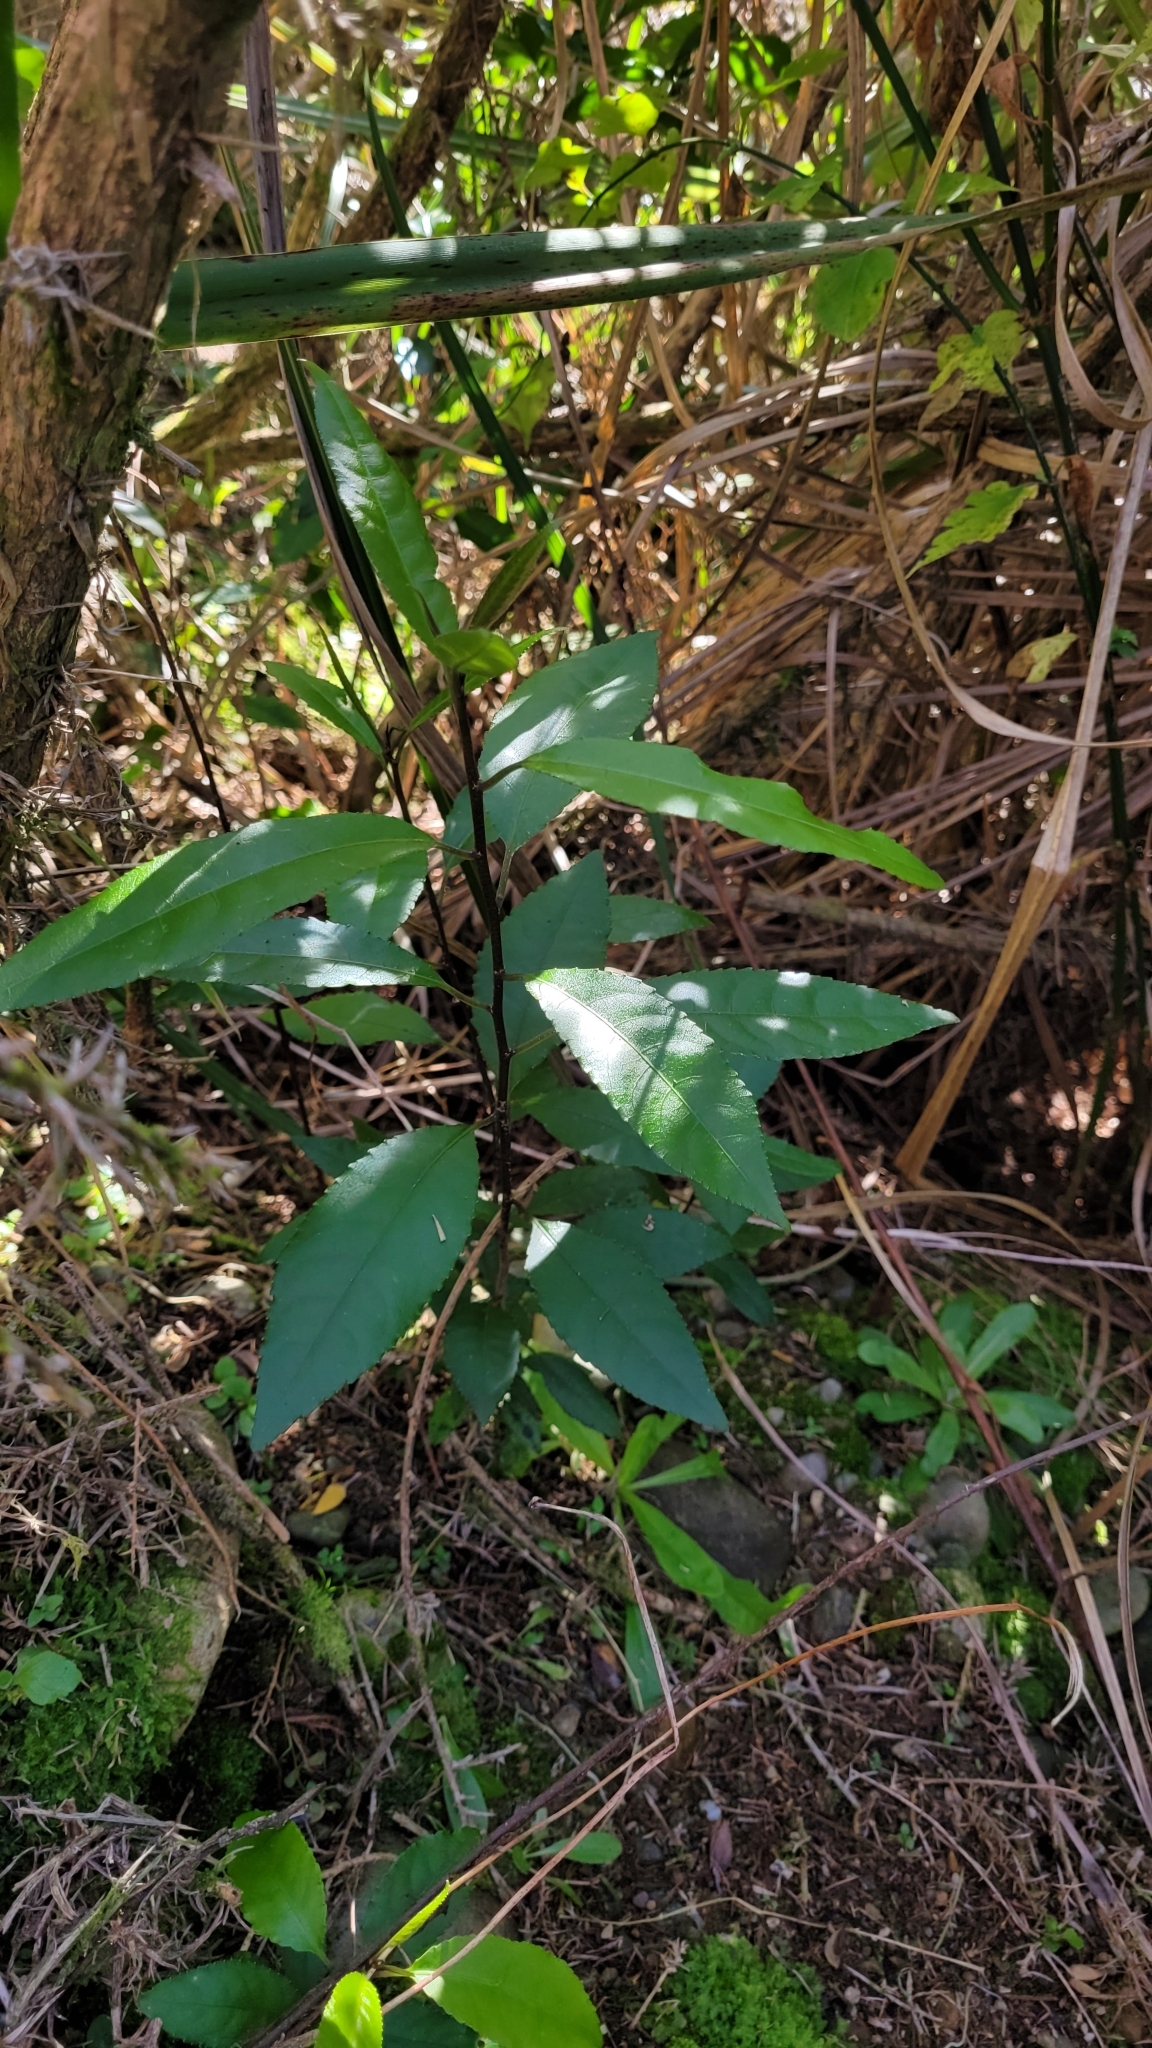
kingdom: Plantae
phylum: Tracheophyta
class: Magnoliopsida
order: Malpighiales
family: Violaceae
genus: Melicytus
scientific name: Melicytus ramiflorus
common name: Mahoe
